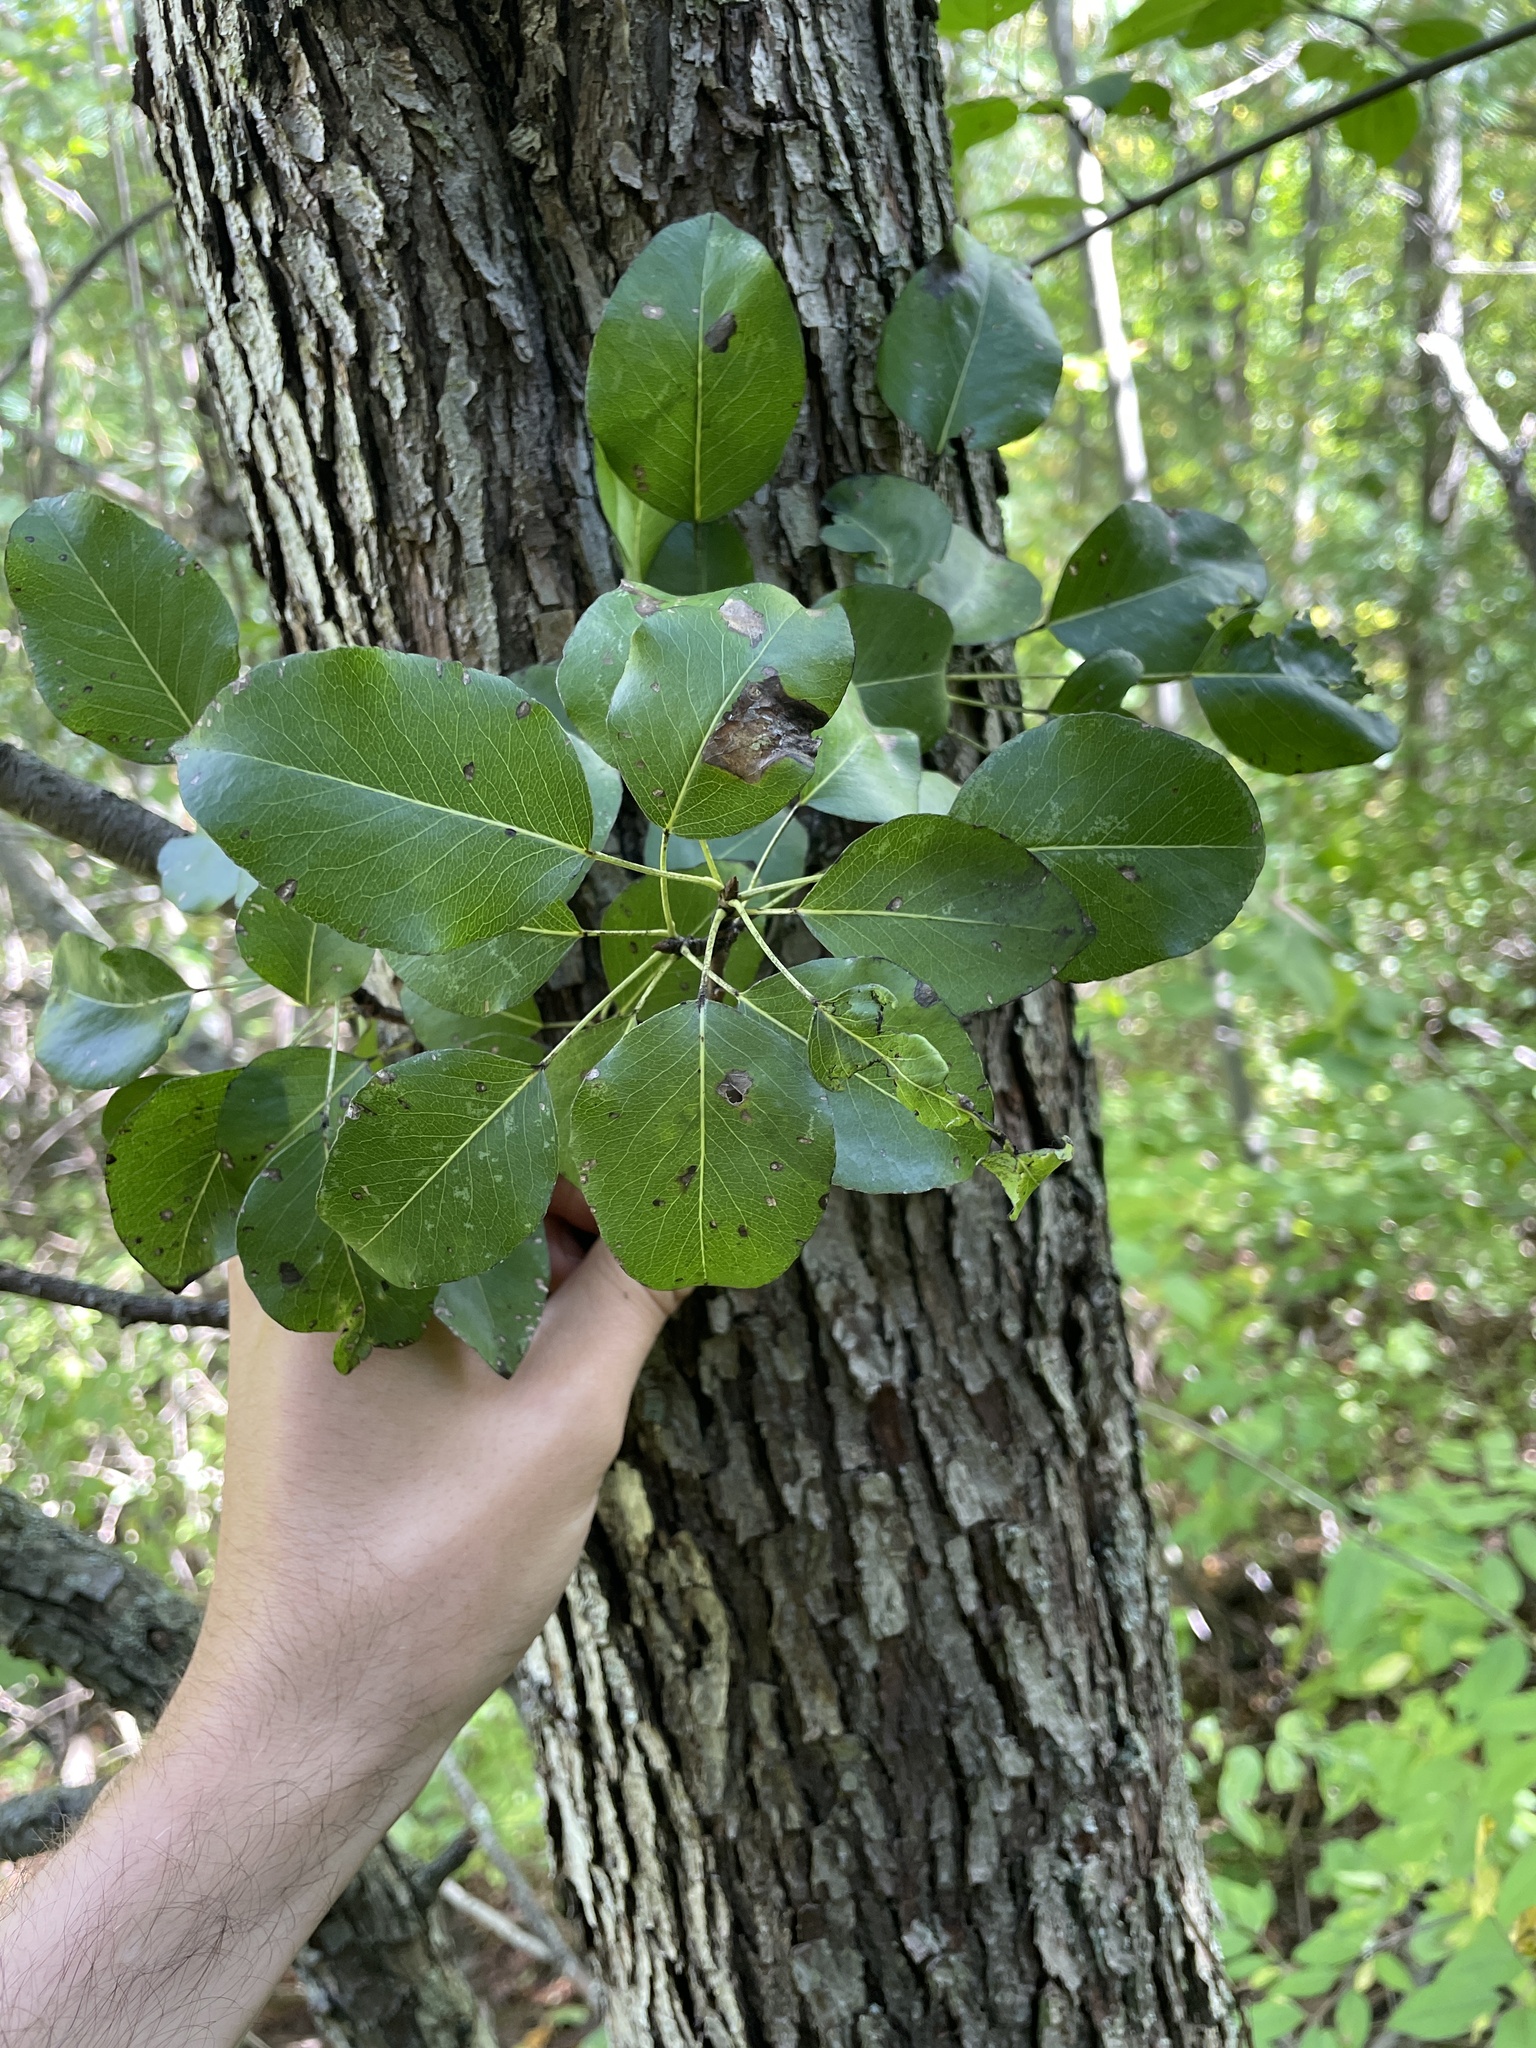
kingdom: Plantae
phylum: Tracheophyta
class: Magnoliopsida
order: Rosales
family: Rosaceae
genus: Pyrus
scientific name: Pyrus communis
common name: Pear
